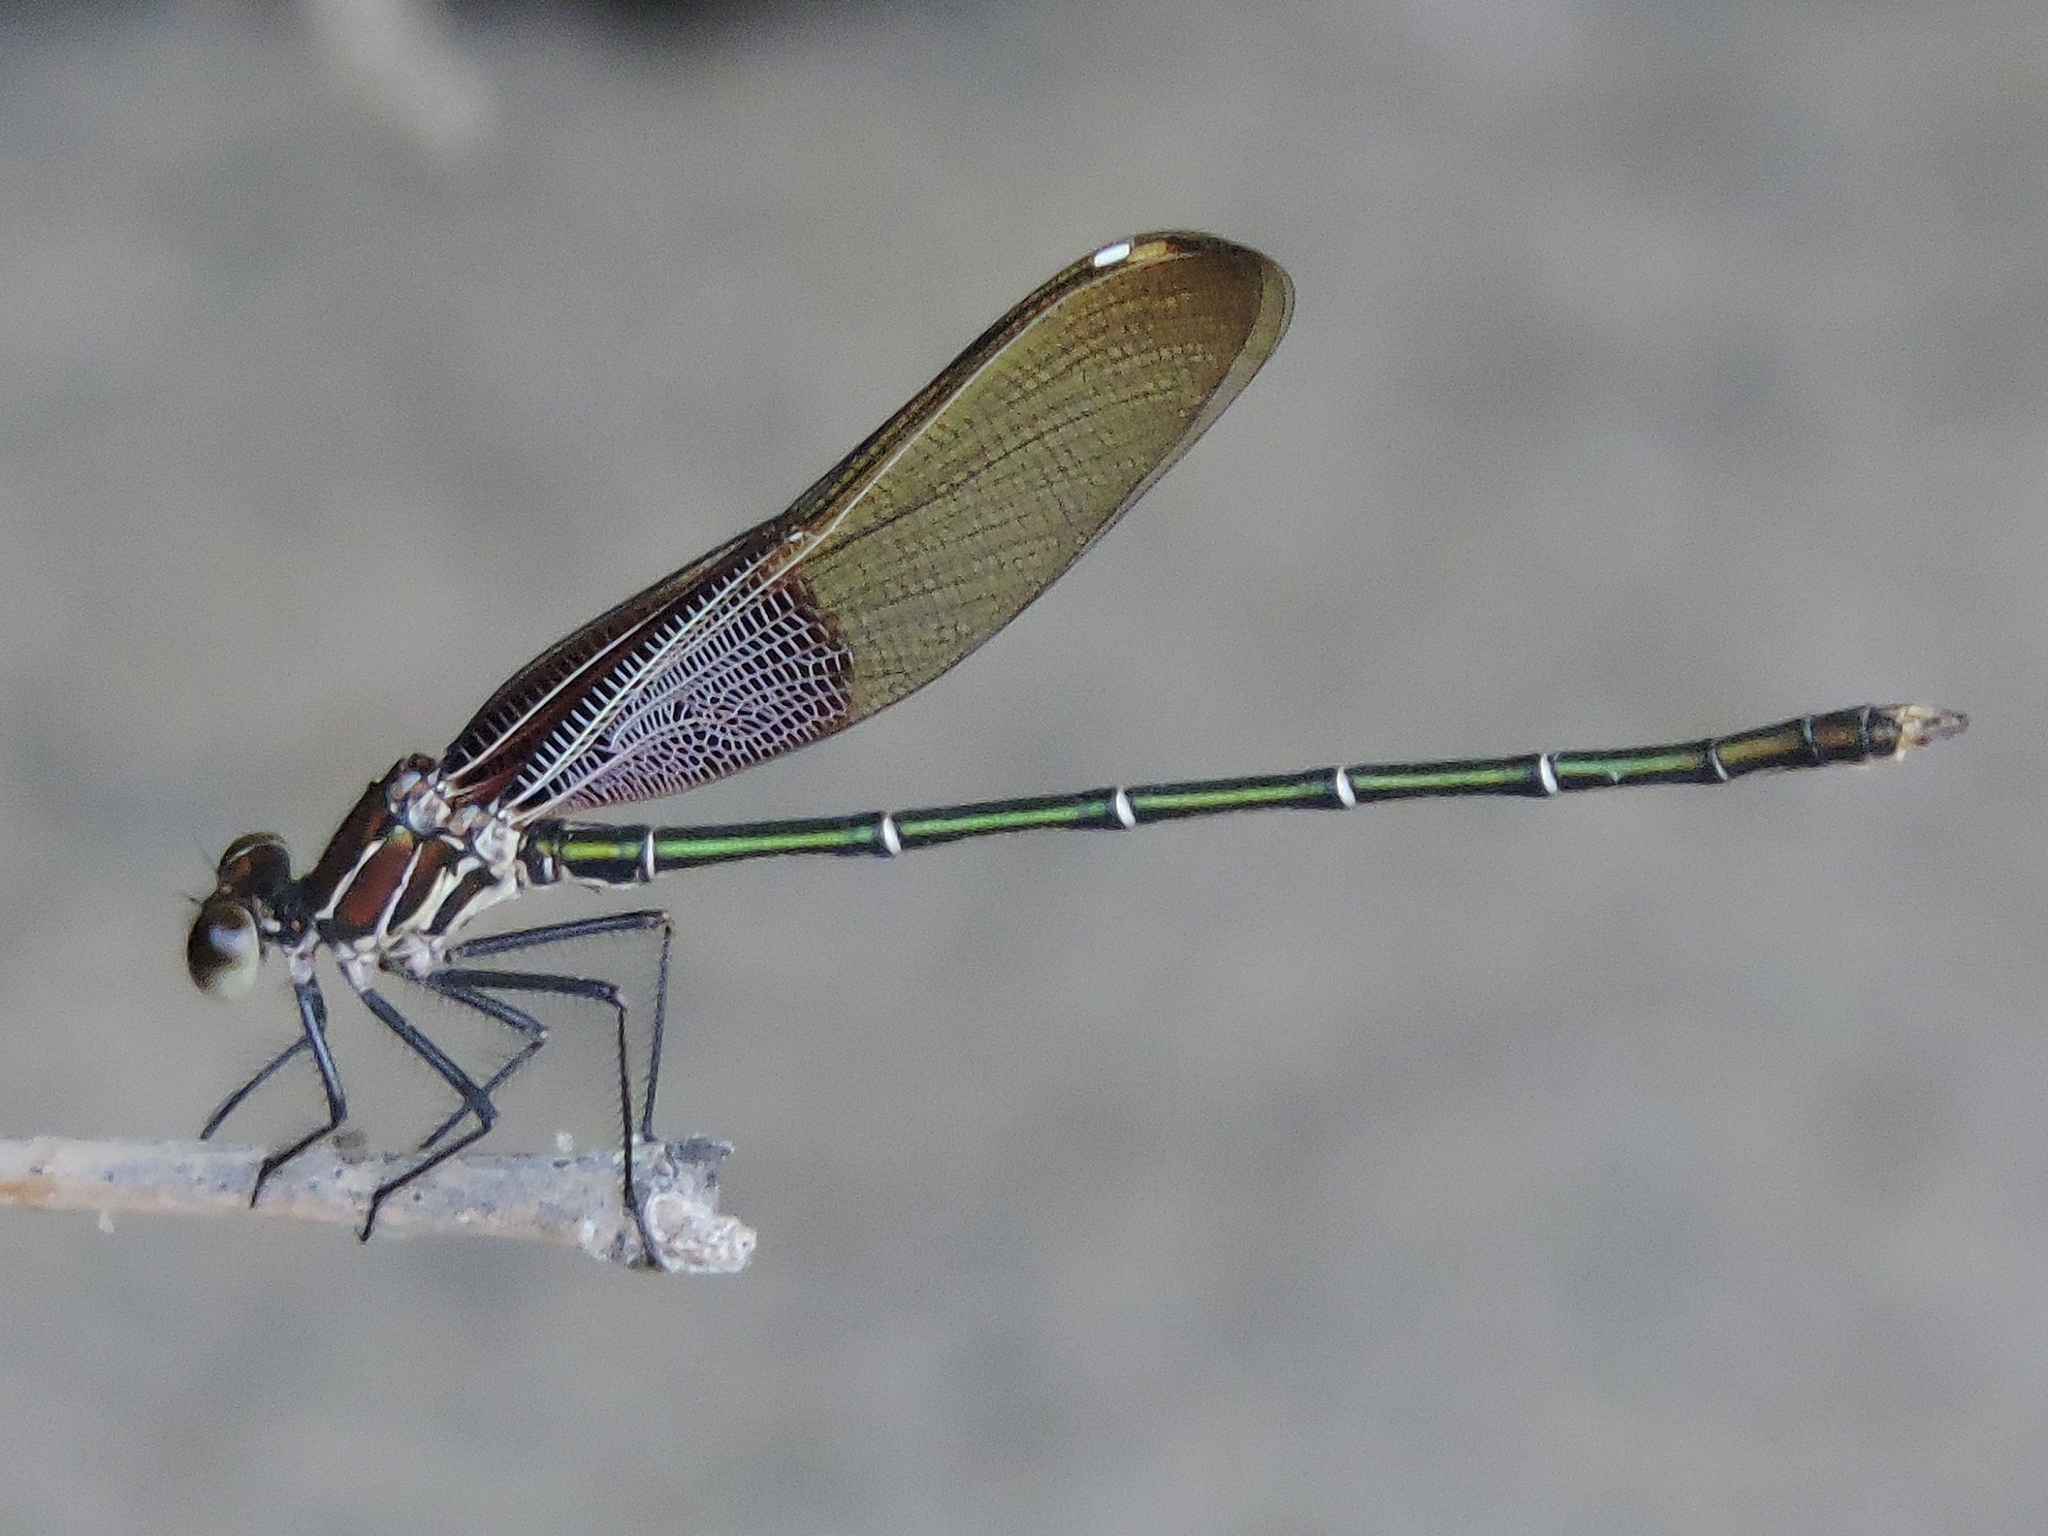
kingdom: Animalia
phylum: Arthropoda
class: Insecta
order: Odonata
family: Calopterygidae
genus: Hetaerina
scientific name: Hetaerina americana
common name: American rubyspot
